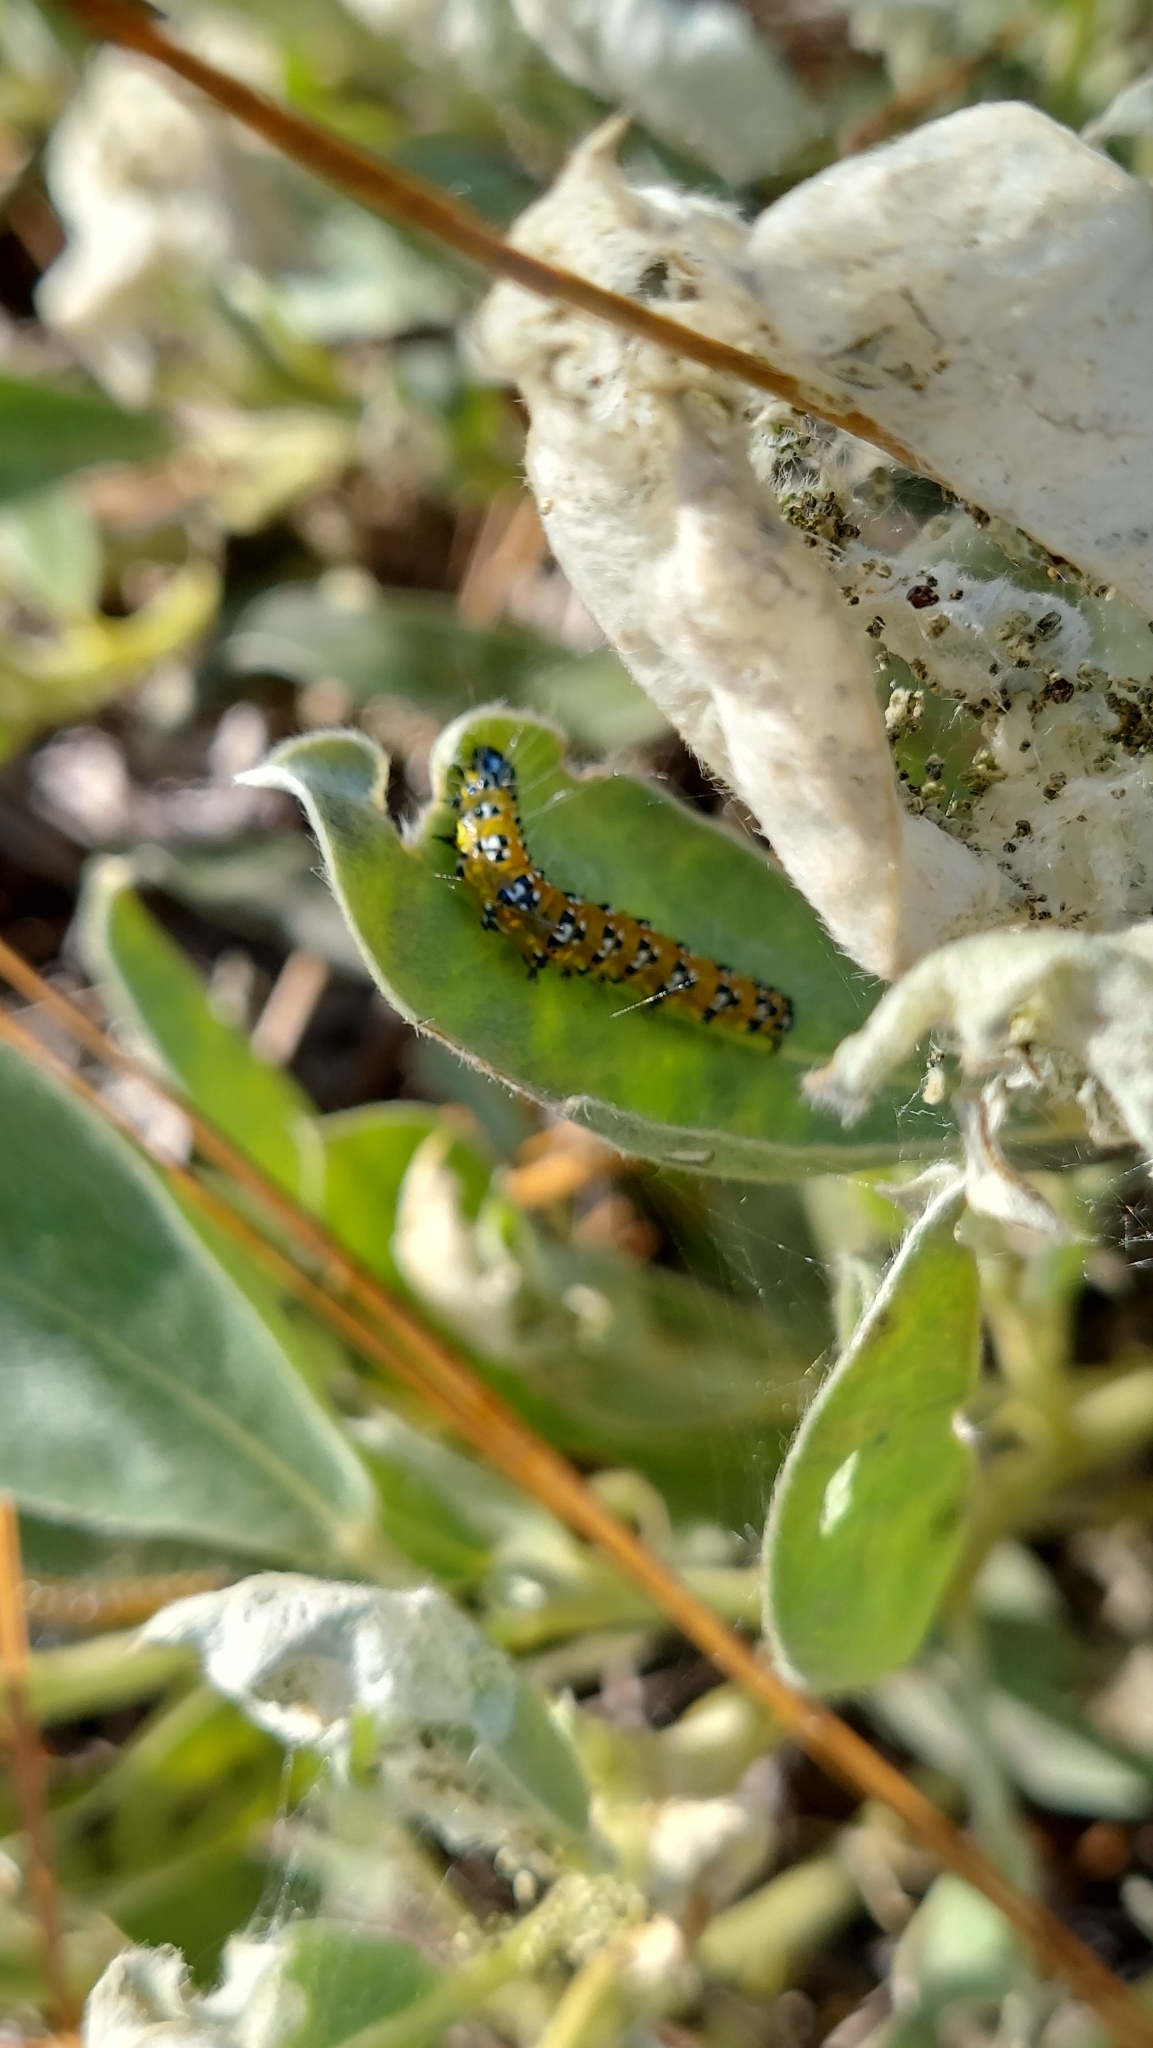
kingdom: Animalia
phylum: Arthropoda
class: Insecta
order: Lepidoptera
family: Crambidae
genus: Uresiphita
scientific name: Uresiphita reversalis
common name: Genista broom moth
